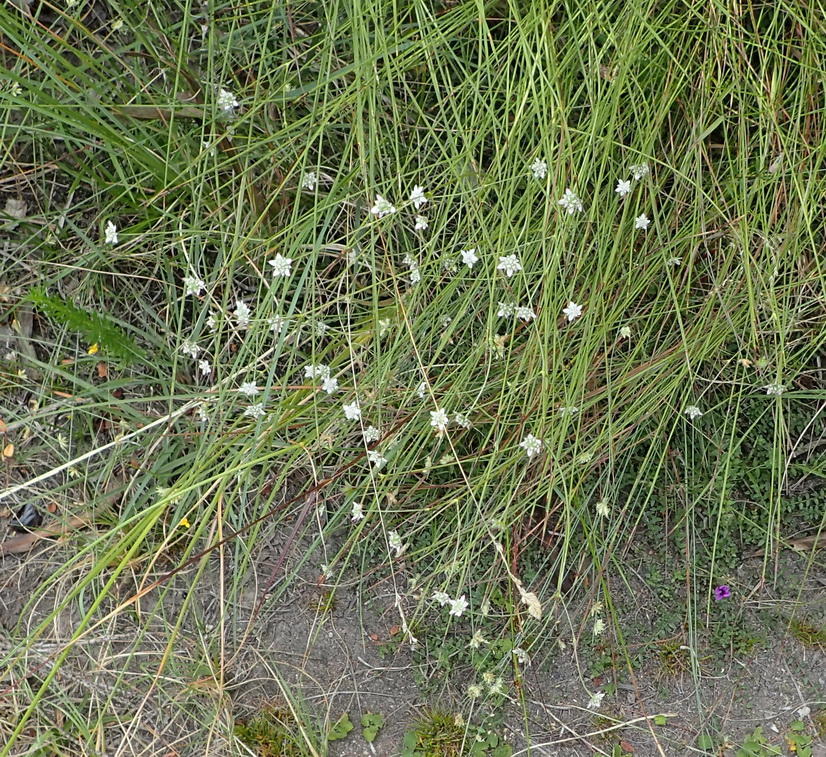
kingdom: Plantae
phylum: Tracheophyta
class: Magnoliopsida
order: Apiales
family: Apiaceae
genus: Alepidea
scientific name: Alepidea capensis
